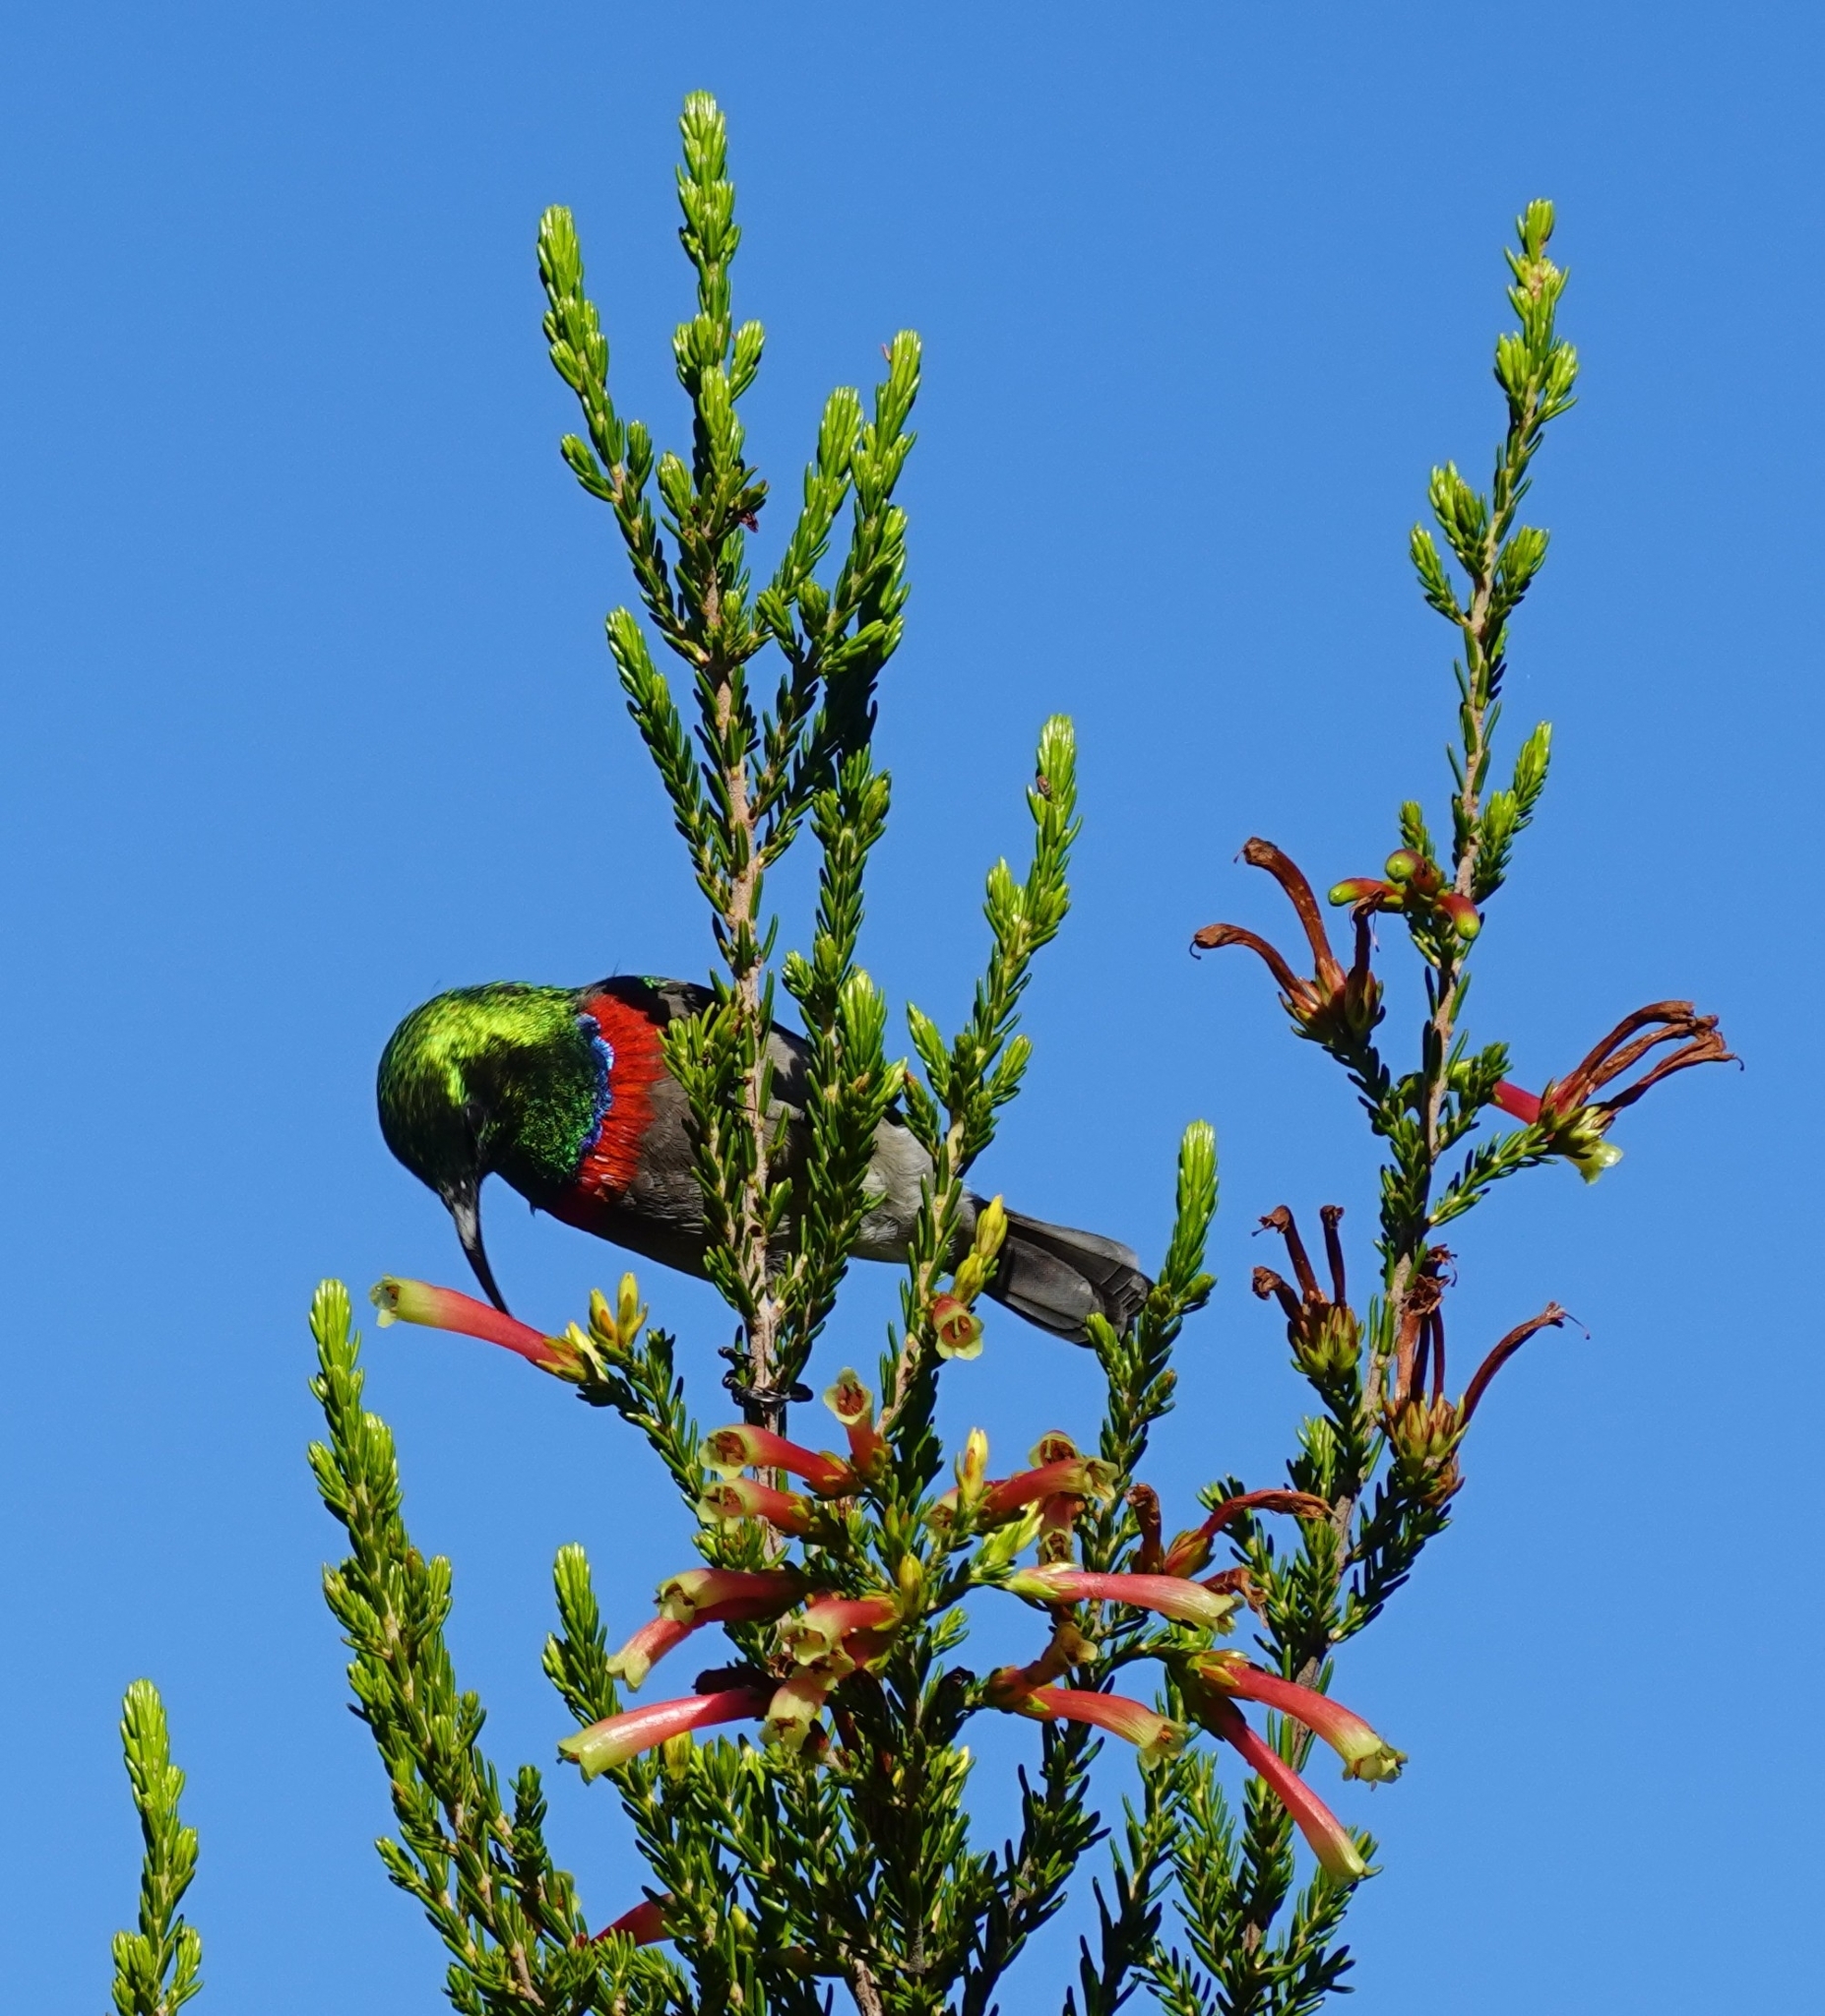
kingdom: Animalia
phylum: Chordata
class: Aves
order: Passeriformes
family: Nectariniidae
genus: Cinnyris
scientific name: Cinnyris chalybeus
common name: Southern double-collared sunbird
